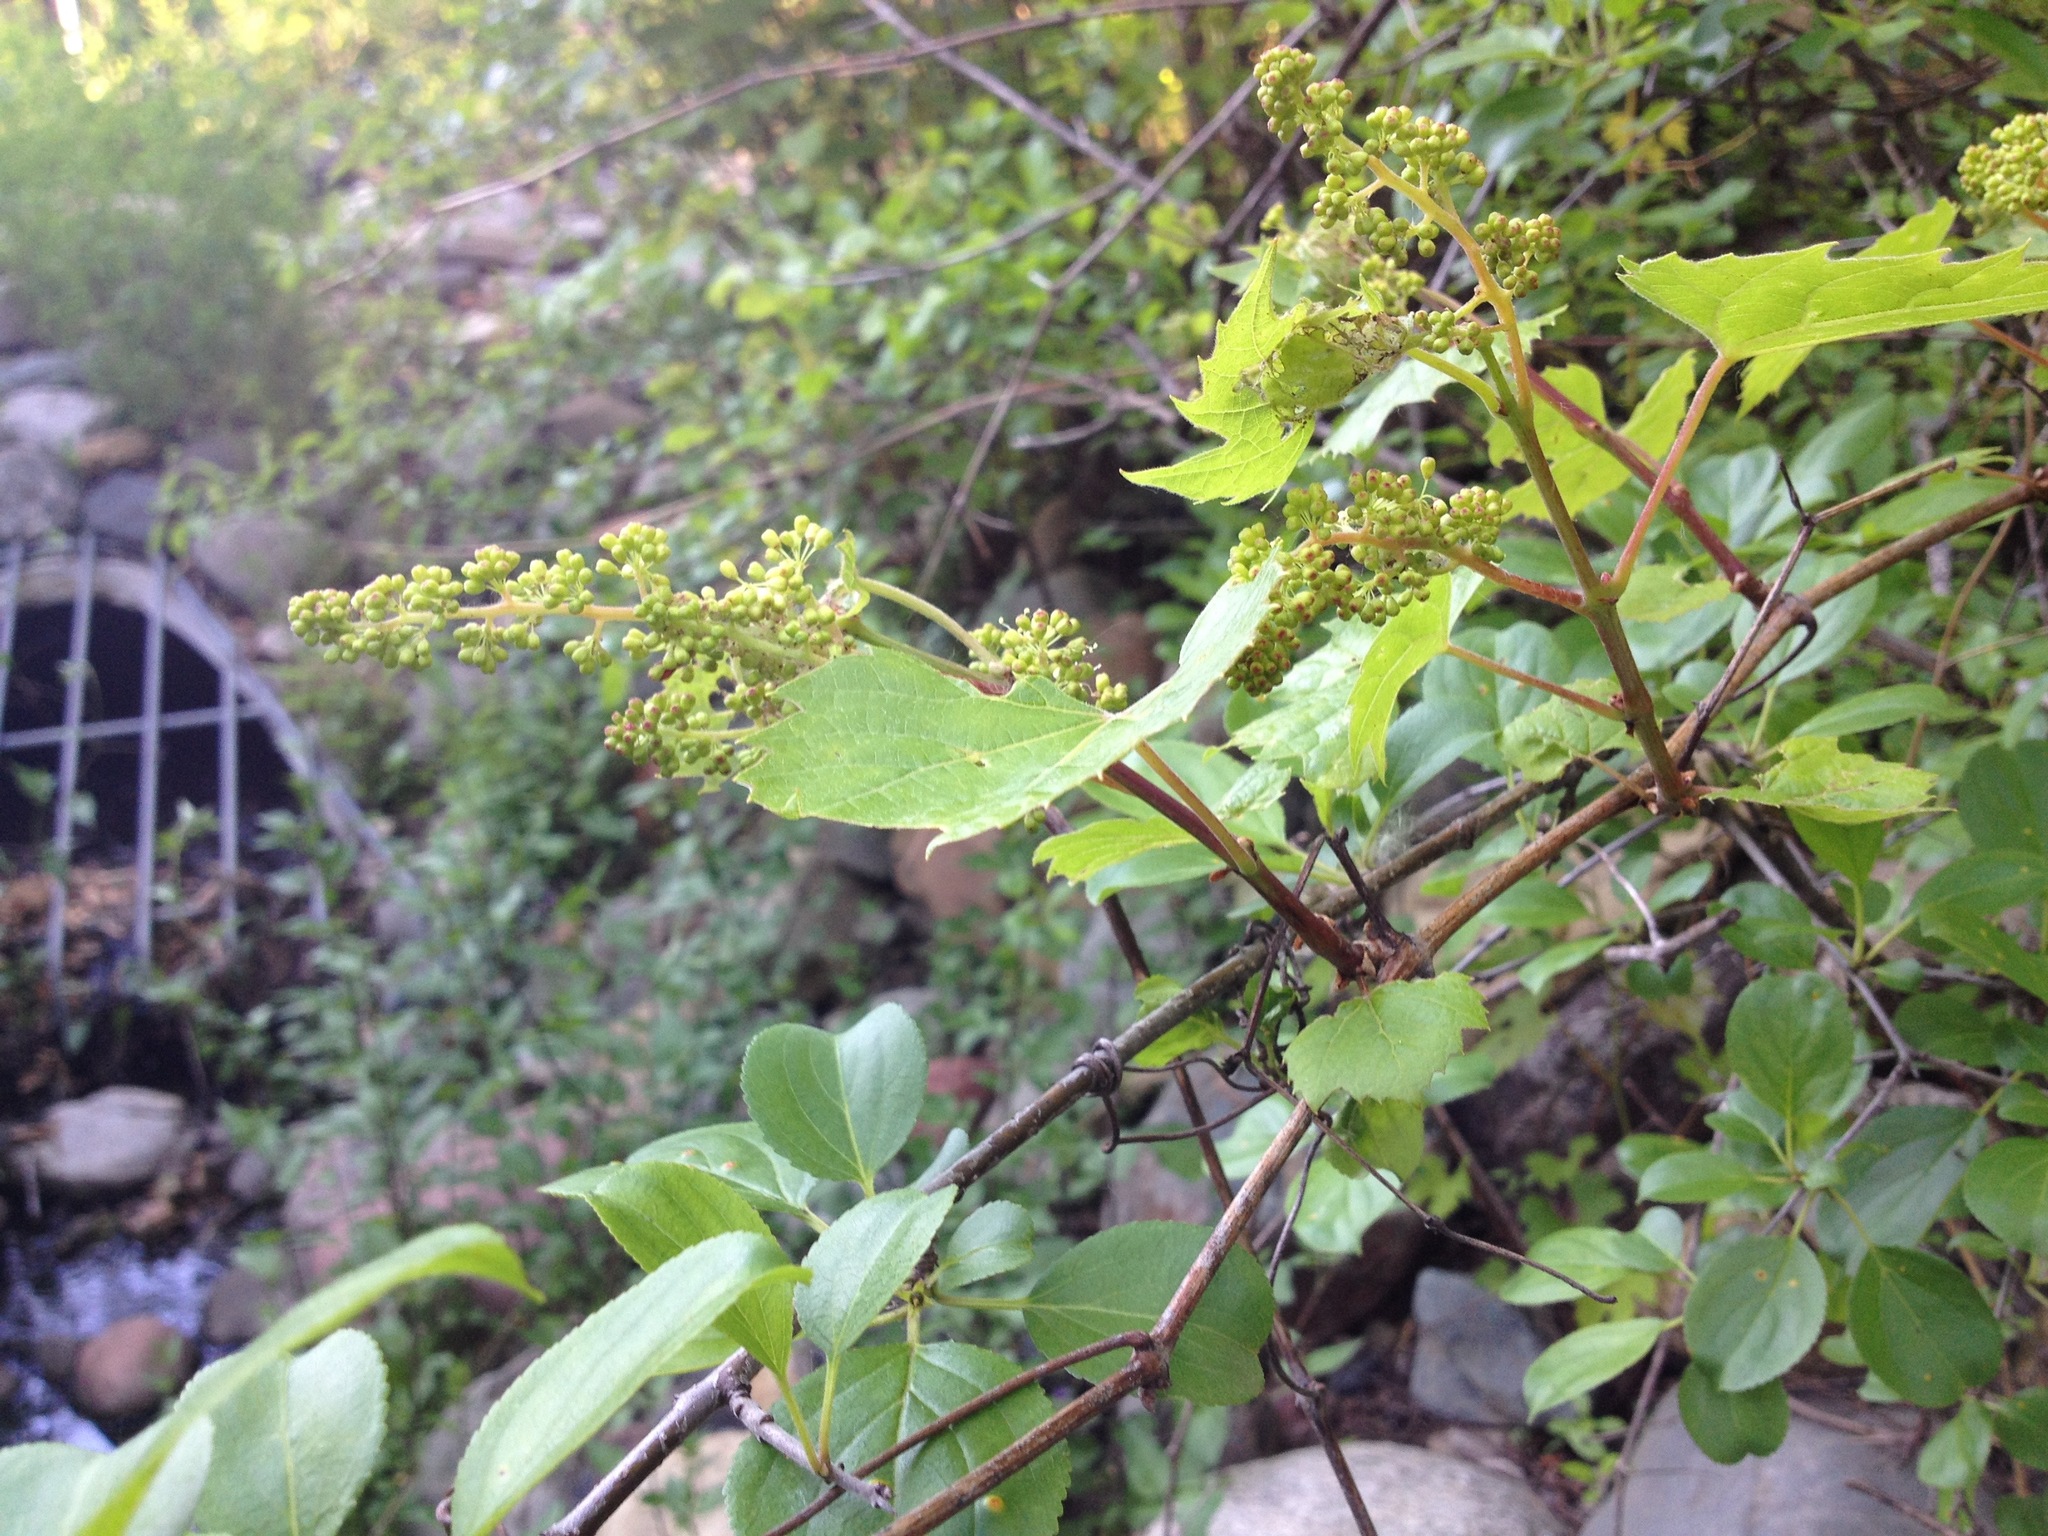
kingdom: Plantae
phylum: Tracheophyta
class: Magnoliopsida
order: Vitales
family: Vitaceae
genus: Vitis
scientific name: Vitis riparia
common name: Frost grape
